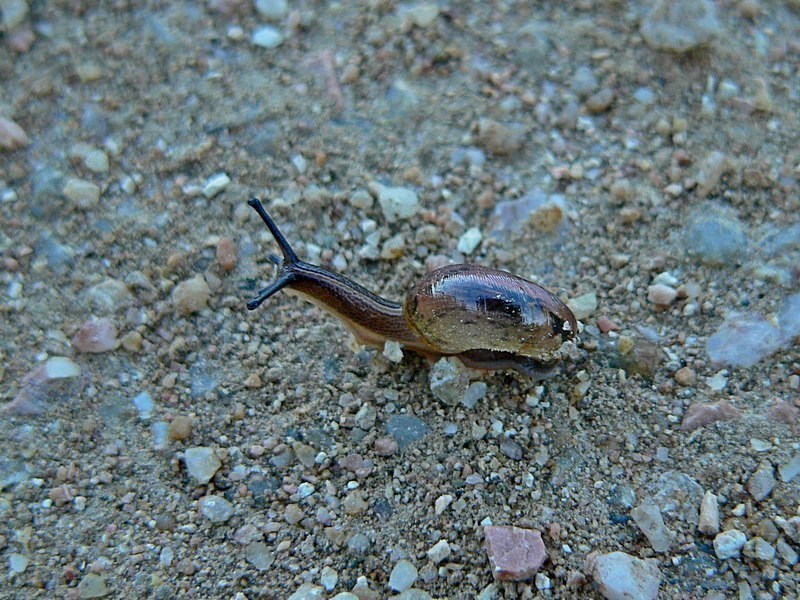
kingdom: Animalia
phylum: Mollusca
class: Gastropoda
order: Stylommatophora
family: Rhytididae
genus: Austrorhytida
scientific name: Austrorhytida capillacea
